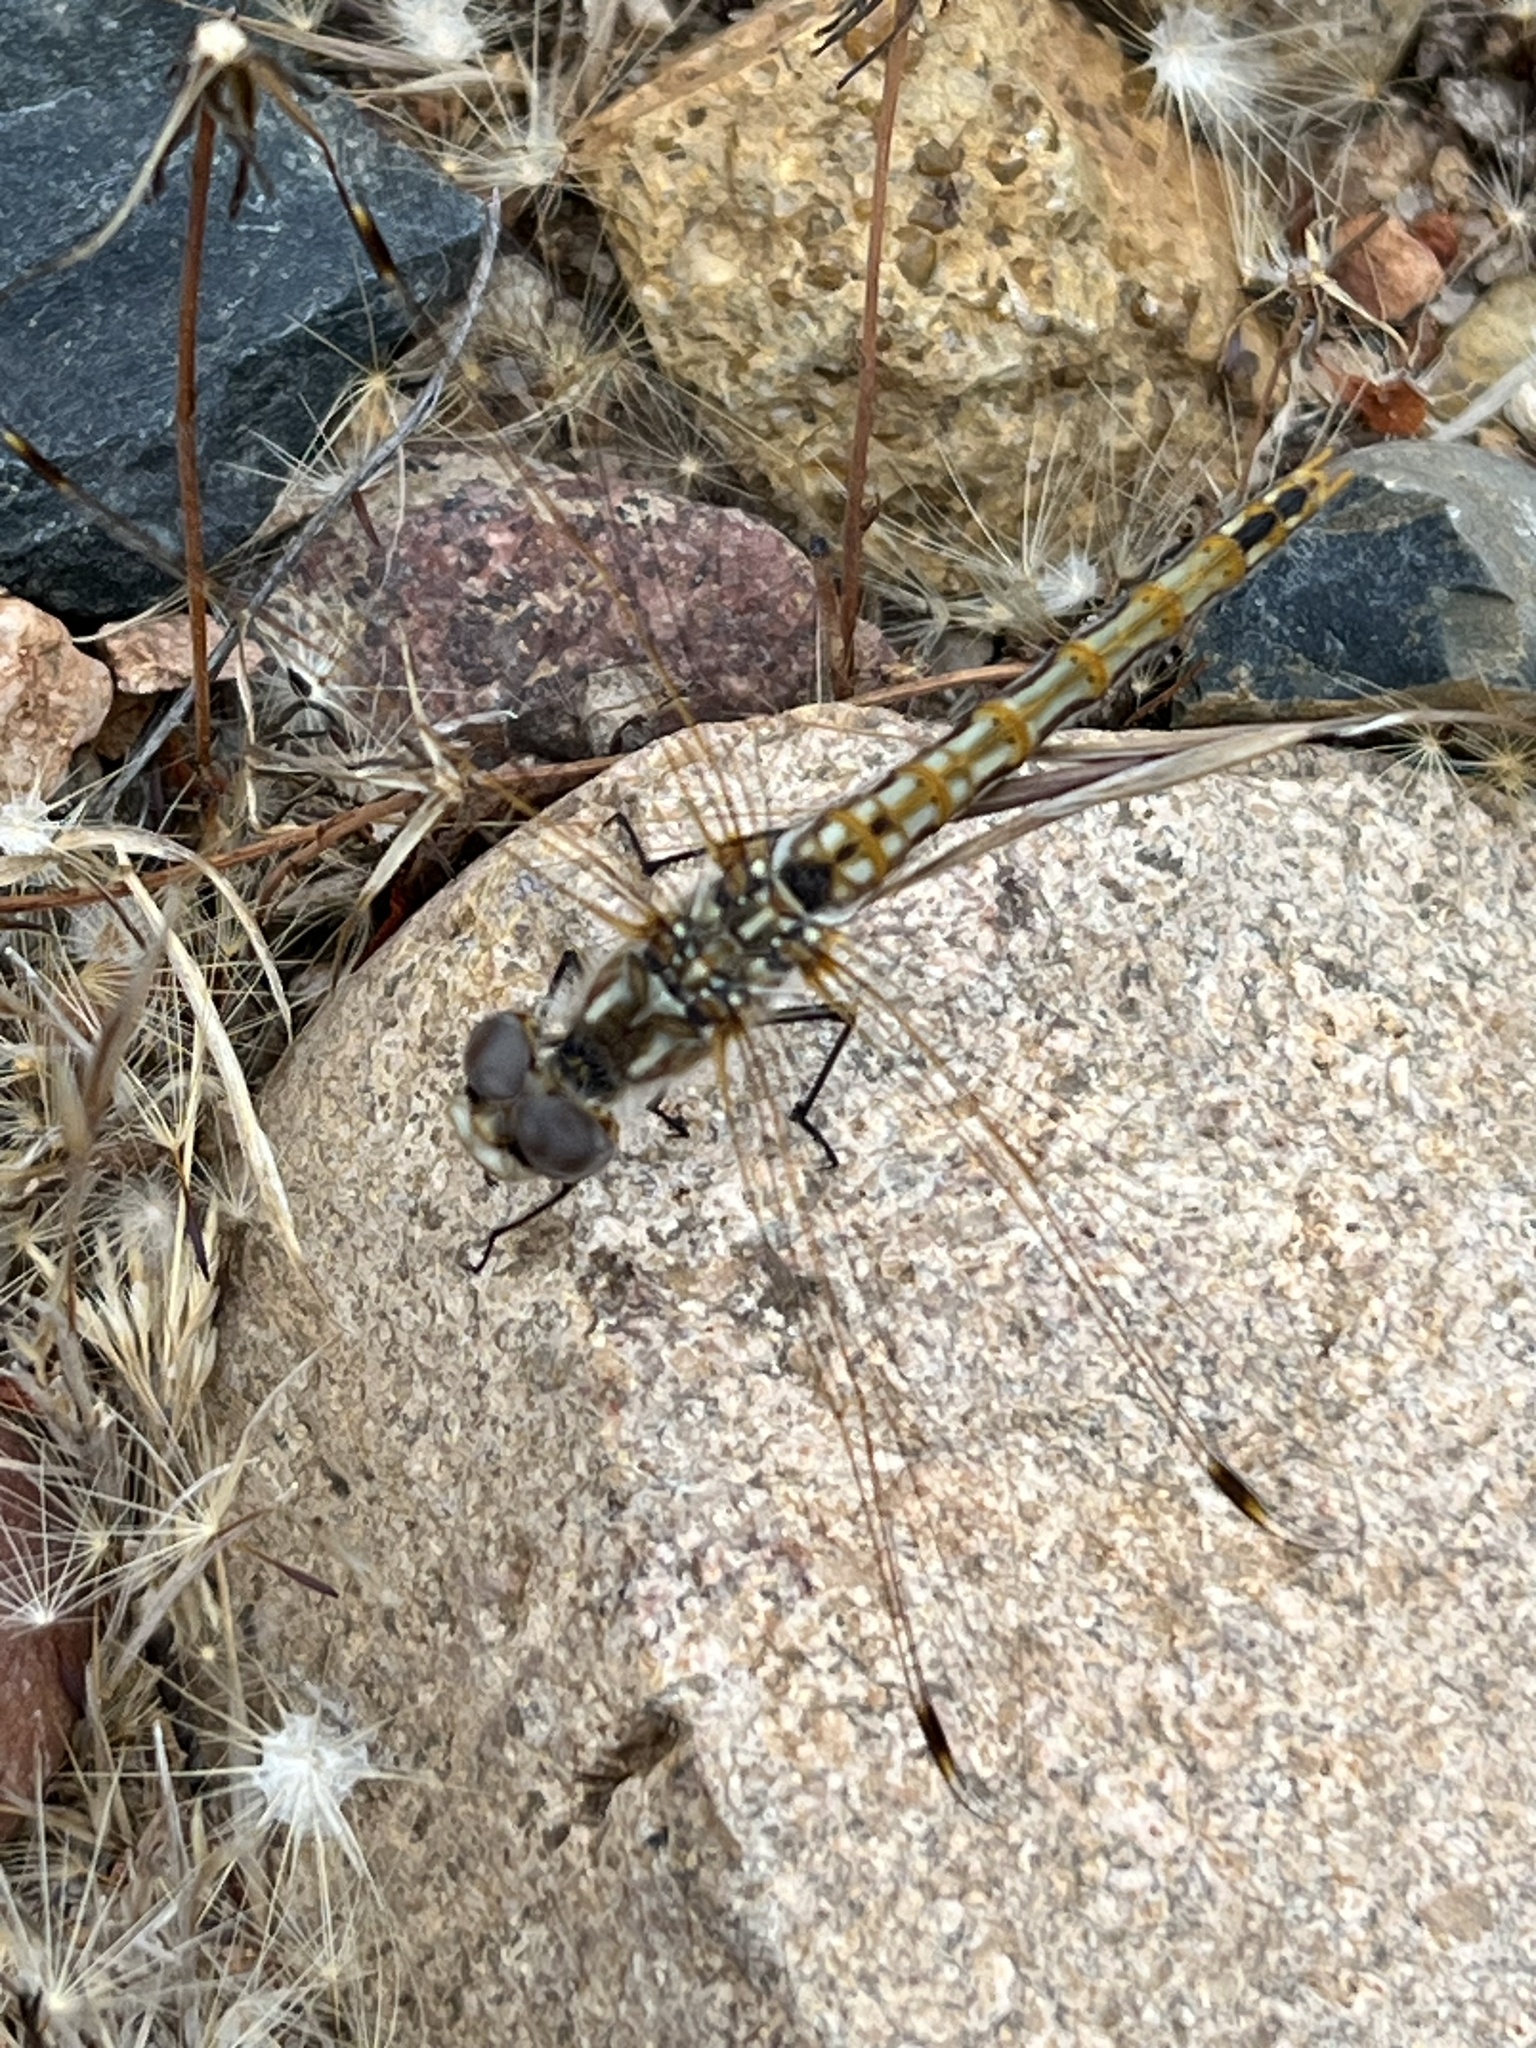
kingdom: Animalia
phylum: Arthropoda
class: Insecta
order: Odonata
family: Libellulidae
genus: Sympetrum
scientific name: Sympetrum corruptum
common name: Variegated meadowhawk
